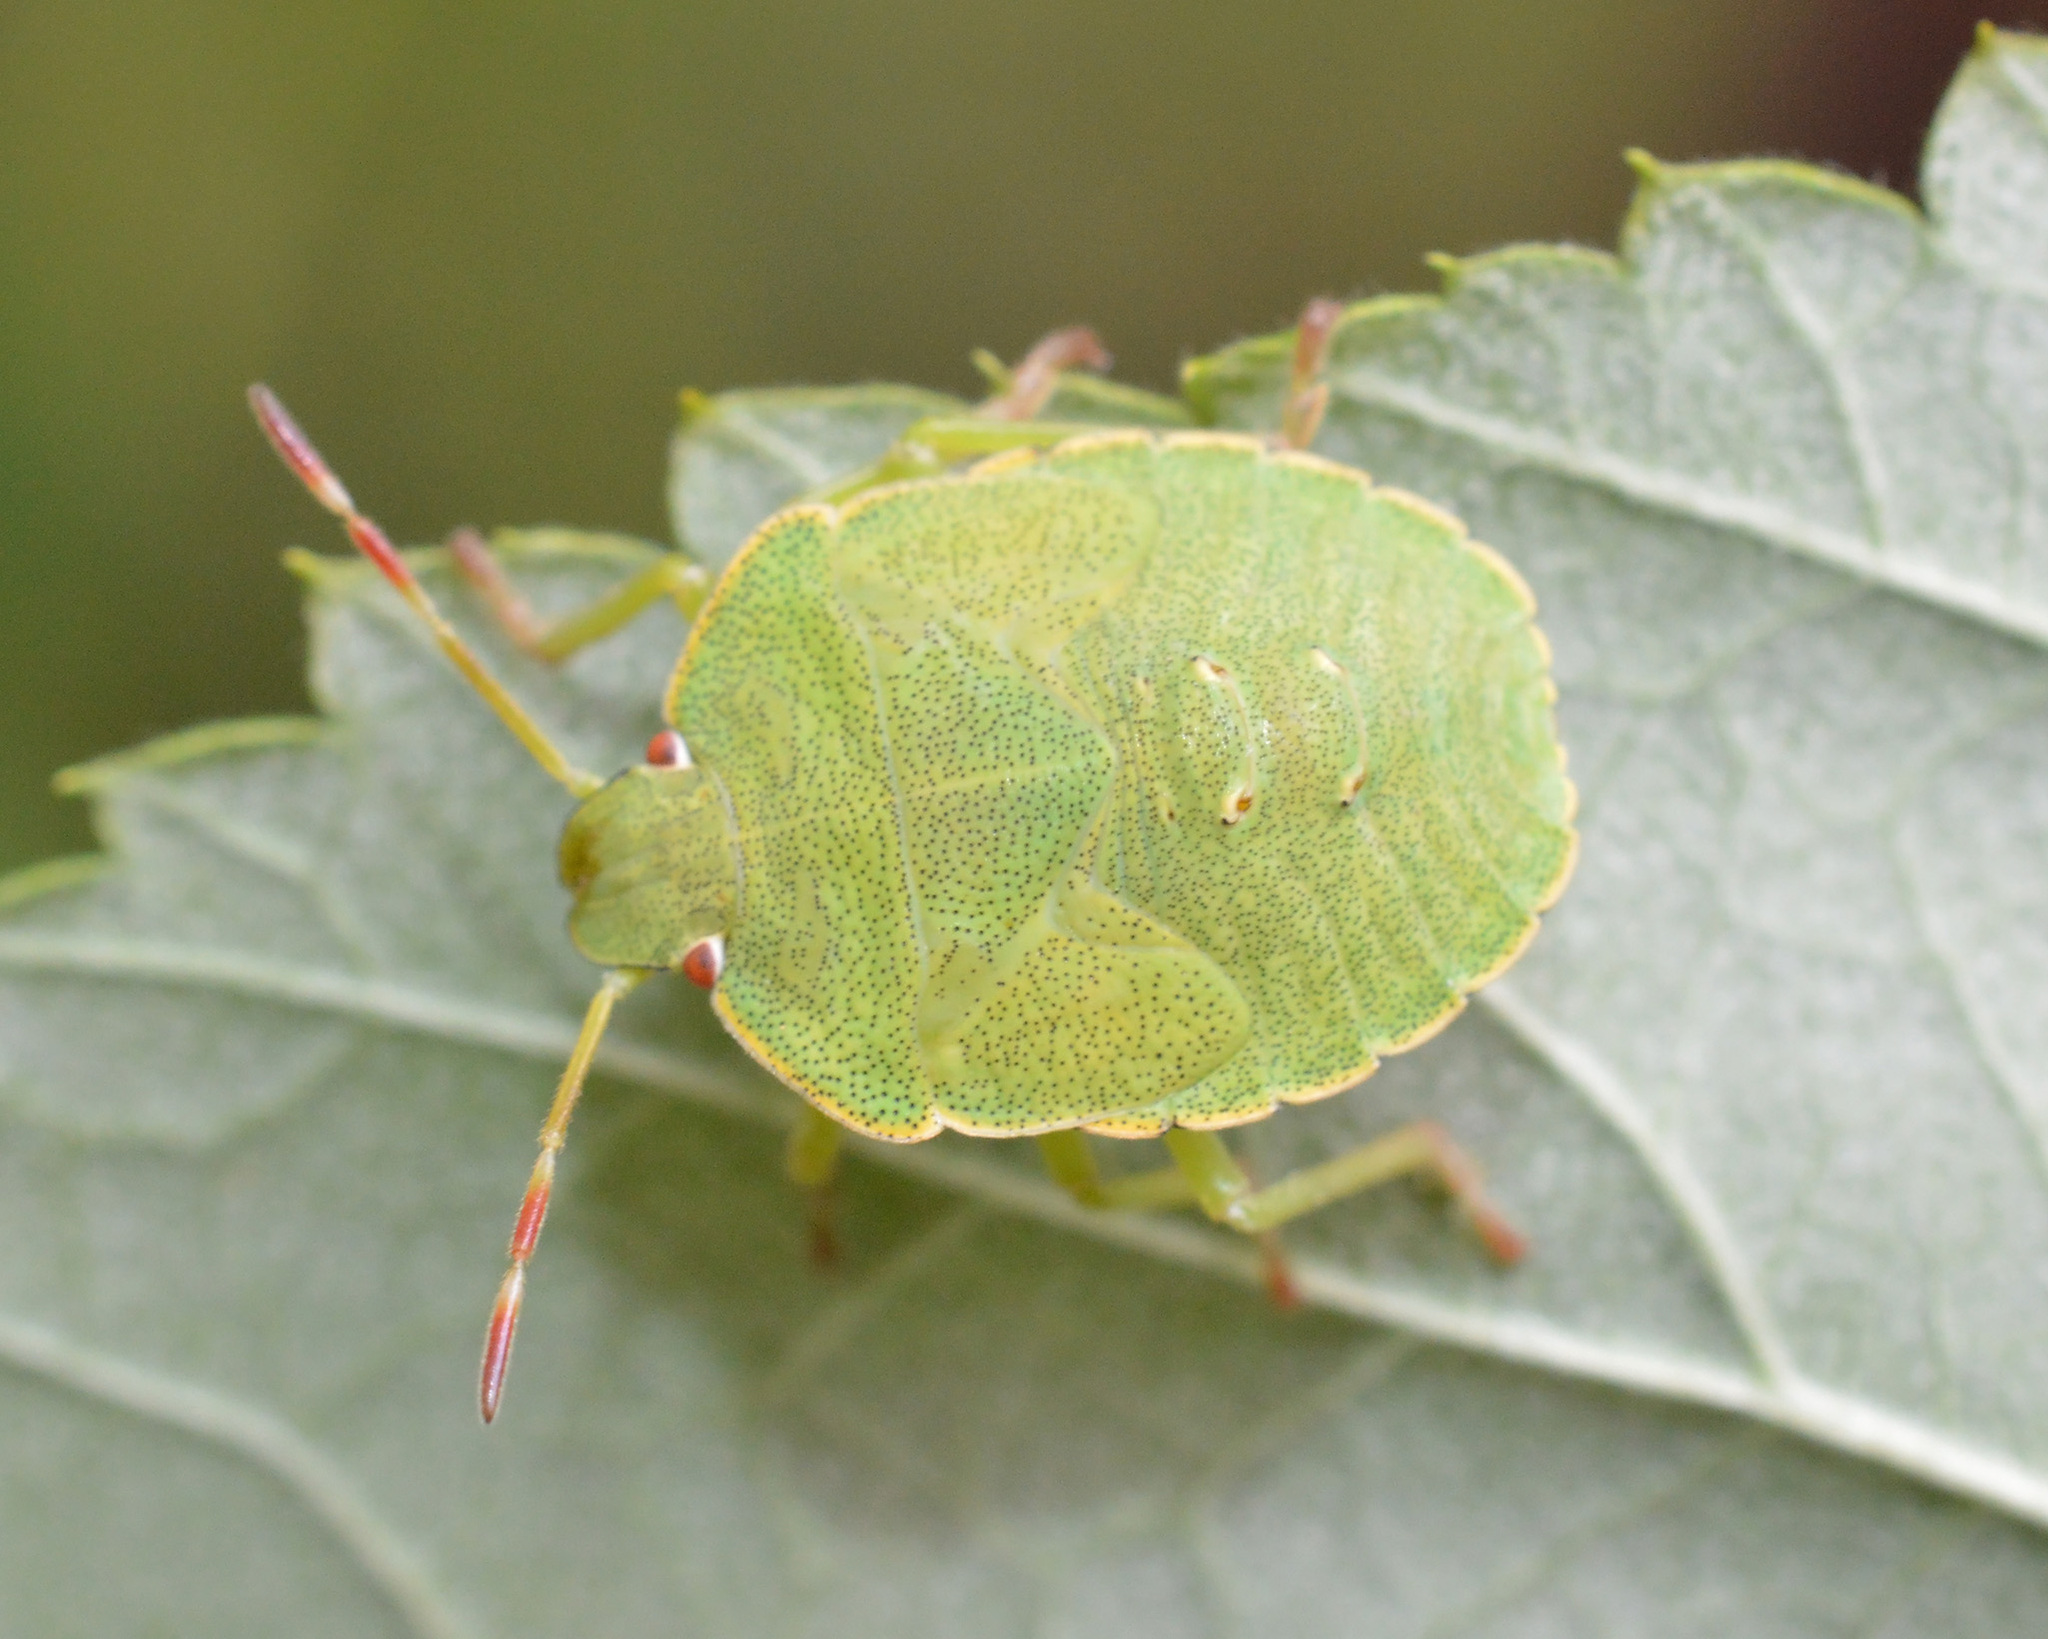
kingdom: Animalia
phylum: Arthropoda
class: Insecta
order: Hemiptera
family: Pentatomidae
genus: Palomena
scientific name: Palomena prasina
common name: Green shieldbug
